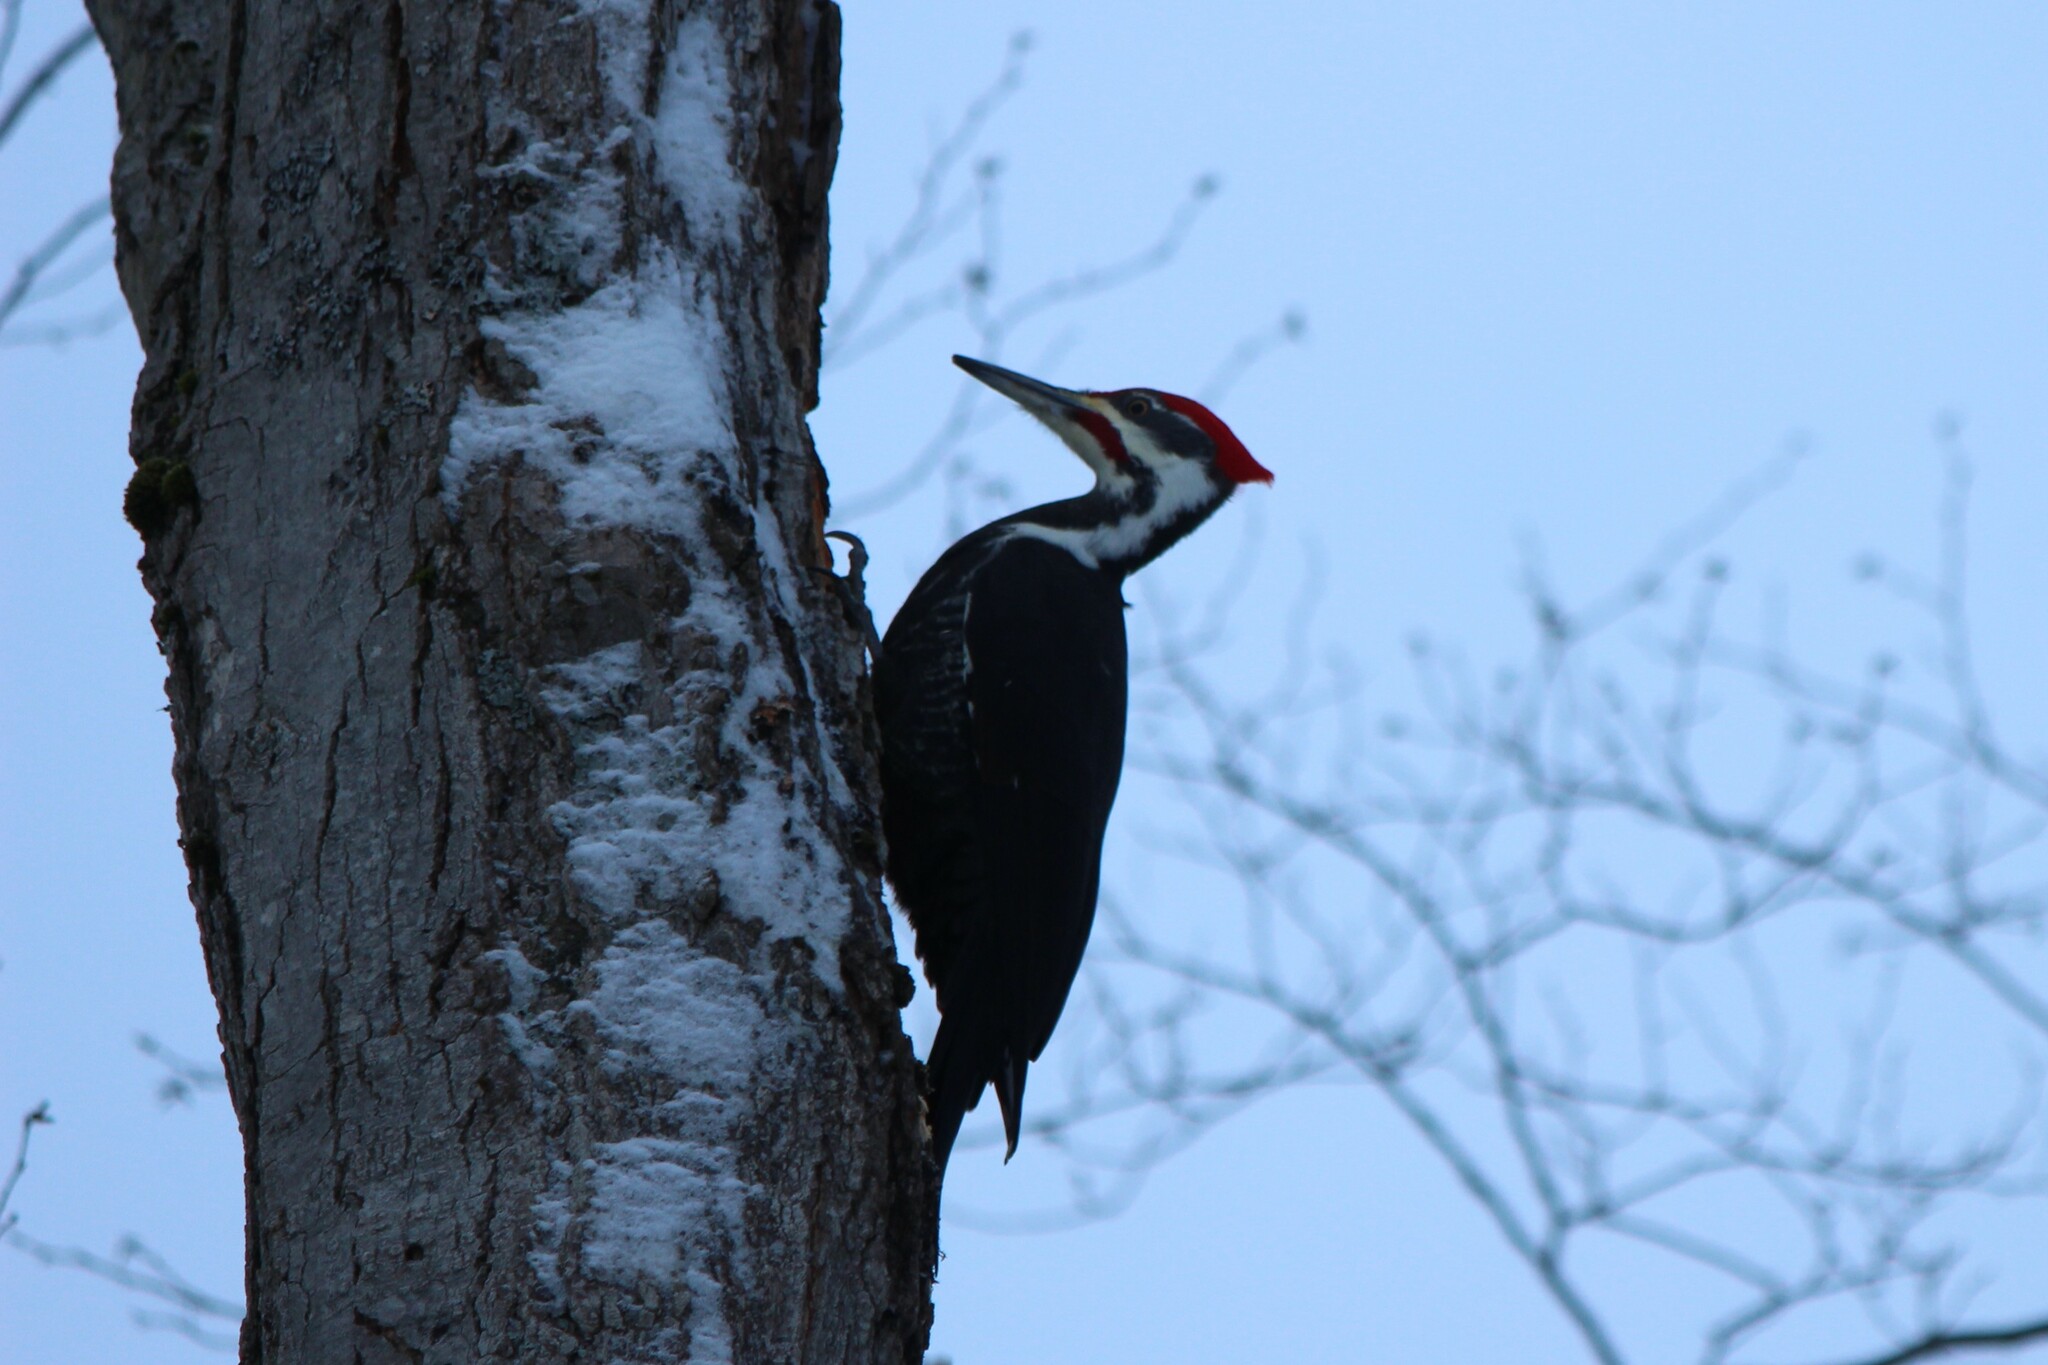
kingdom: Animalia
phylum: Chordata
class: Aves
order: Piciformes
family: Picidae
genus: Dryocopus
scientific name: Dryocopus pileatus
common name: Pileated woodpecker
